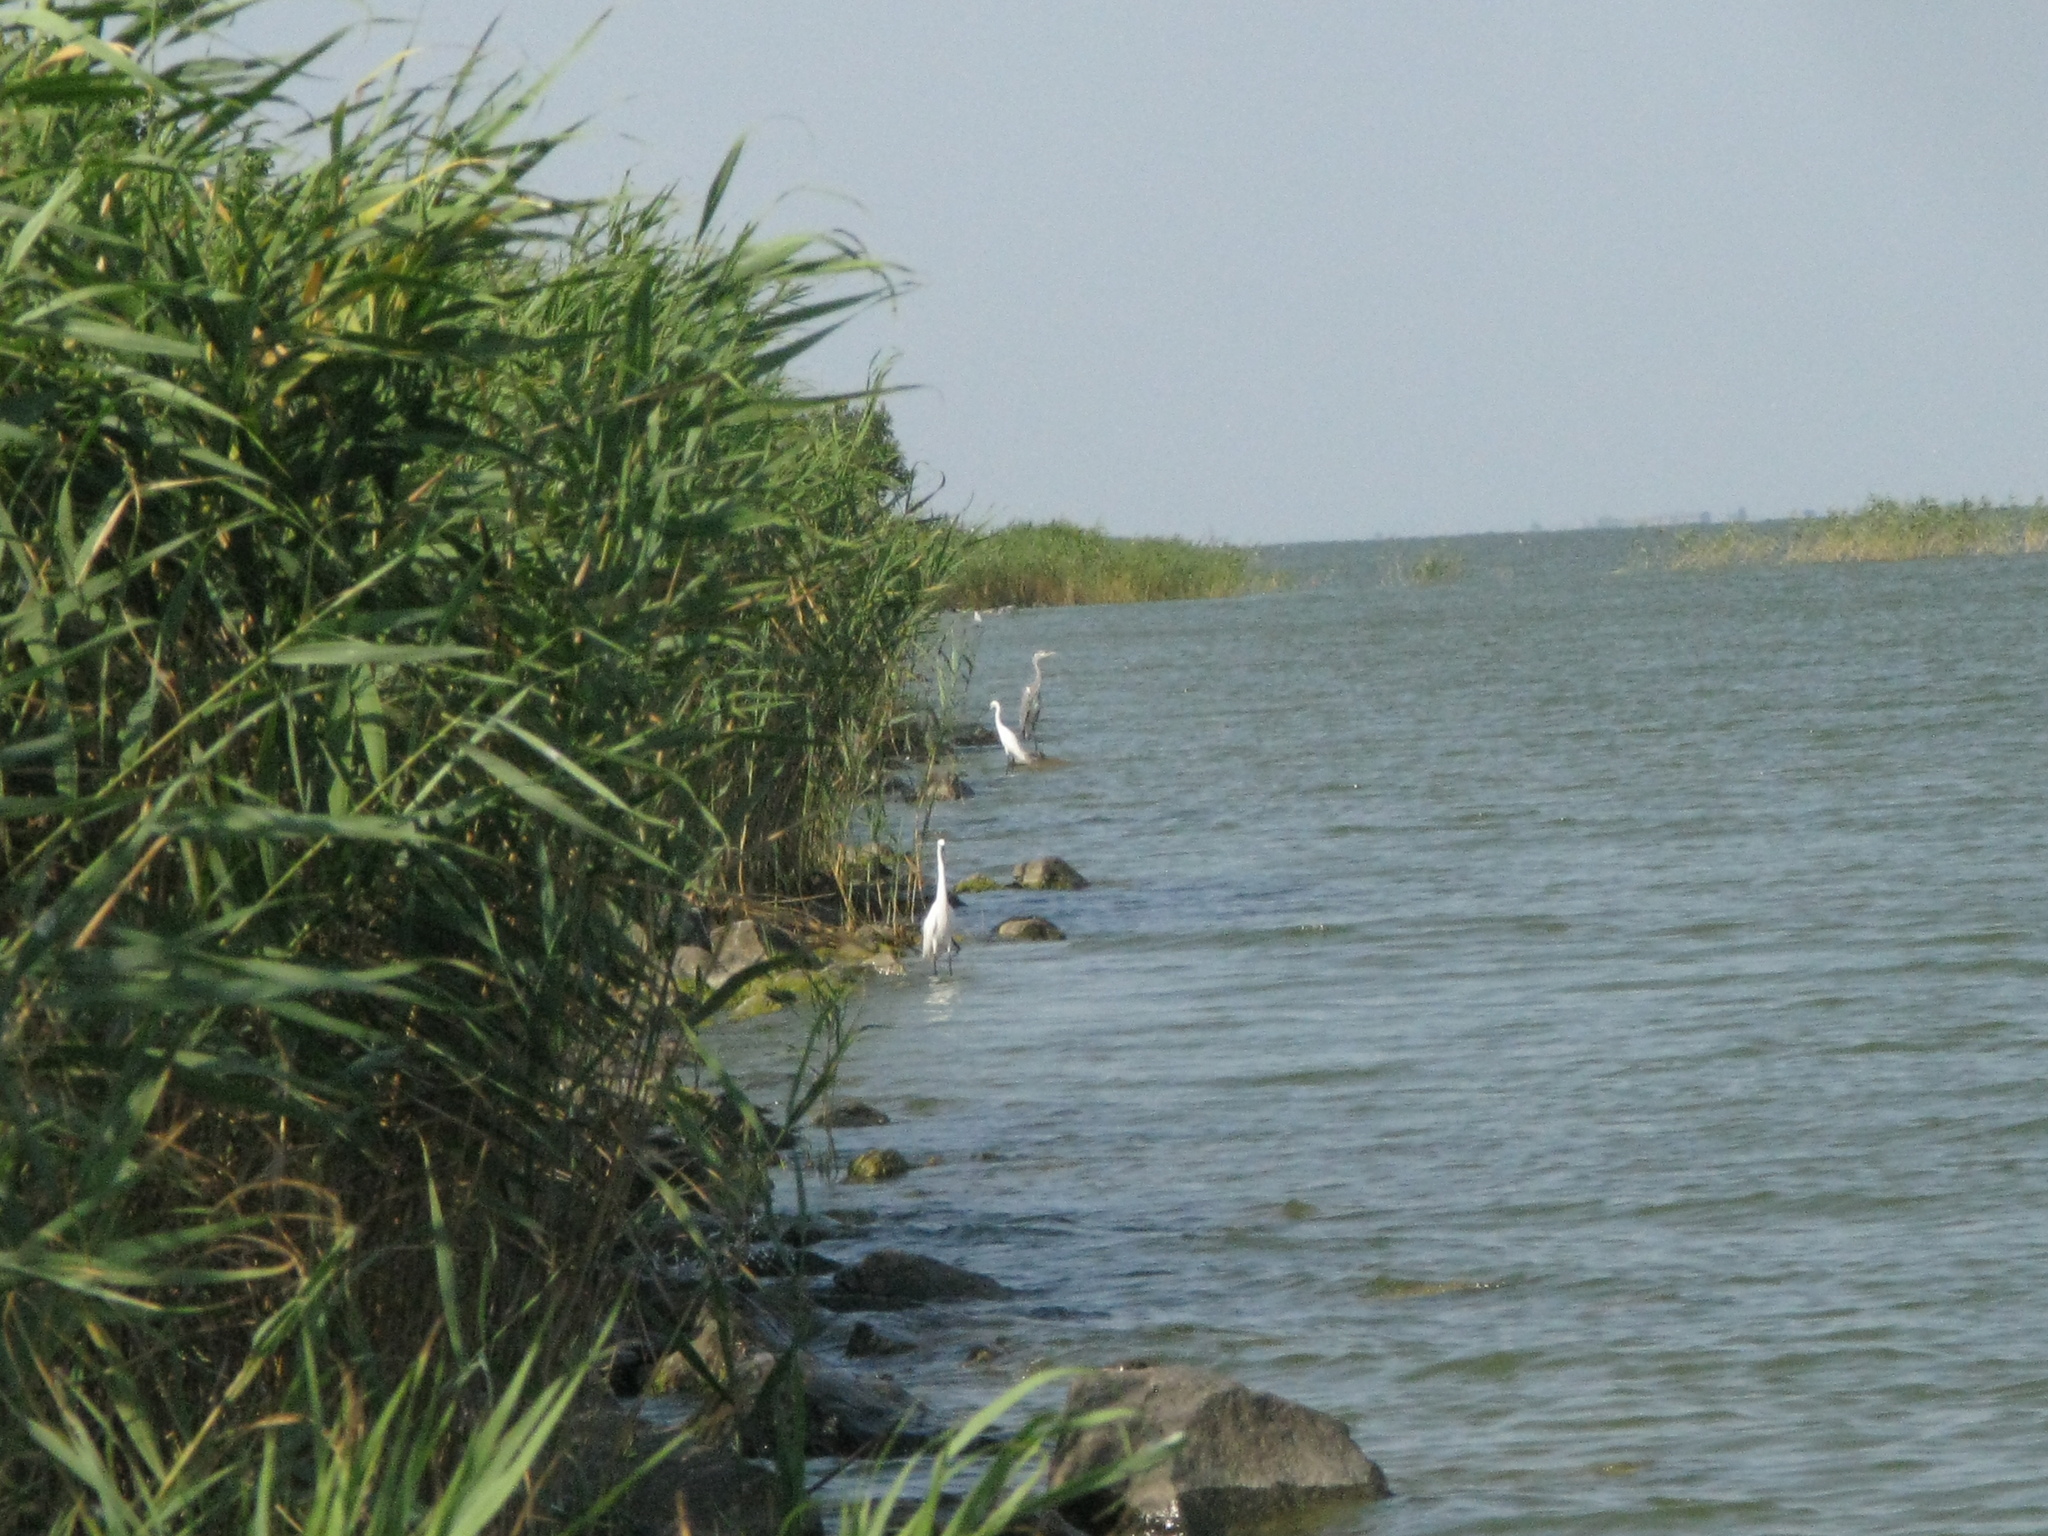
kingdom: Animalia
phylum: Chordata
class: Aves
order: Pelecaniformes
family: Ardeidae
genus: Ardea
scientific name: Ardea cinerea
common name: Grey heron
